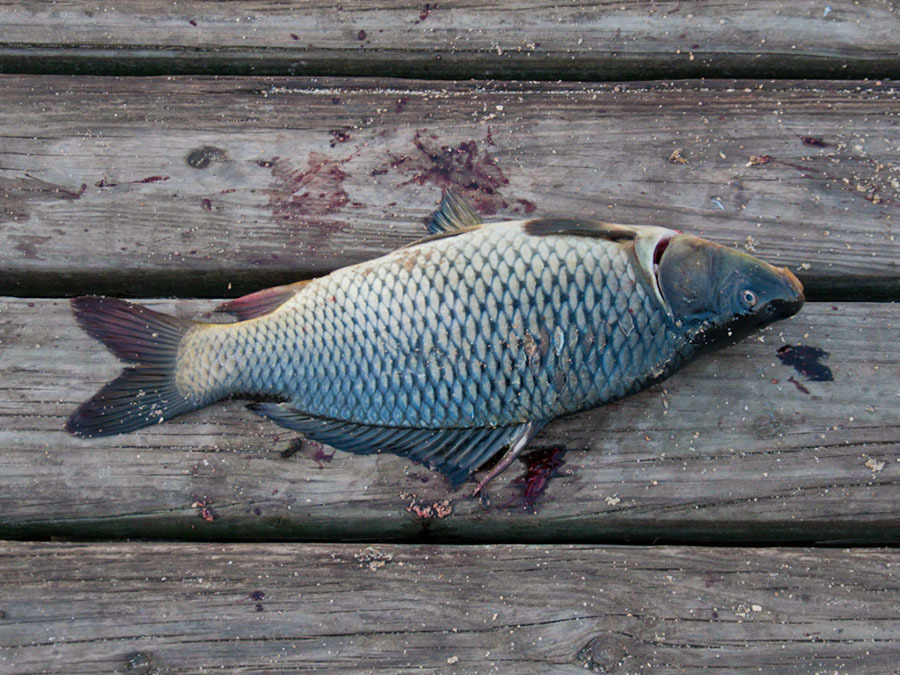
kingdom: Animalia
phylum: Chordata
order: Cypriniformes
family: Cyprinidae
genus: Cyprinus
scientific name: Cyprinus carpio
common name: Common carp
